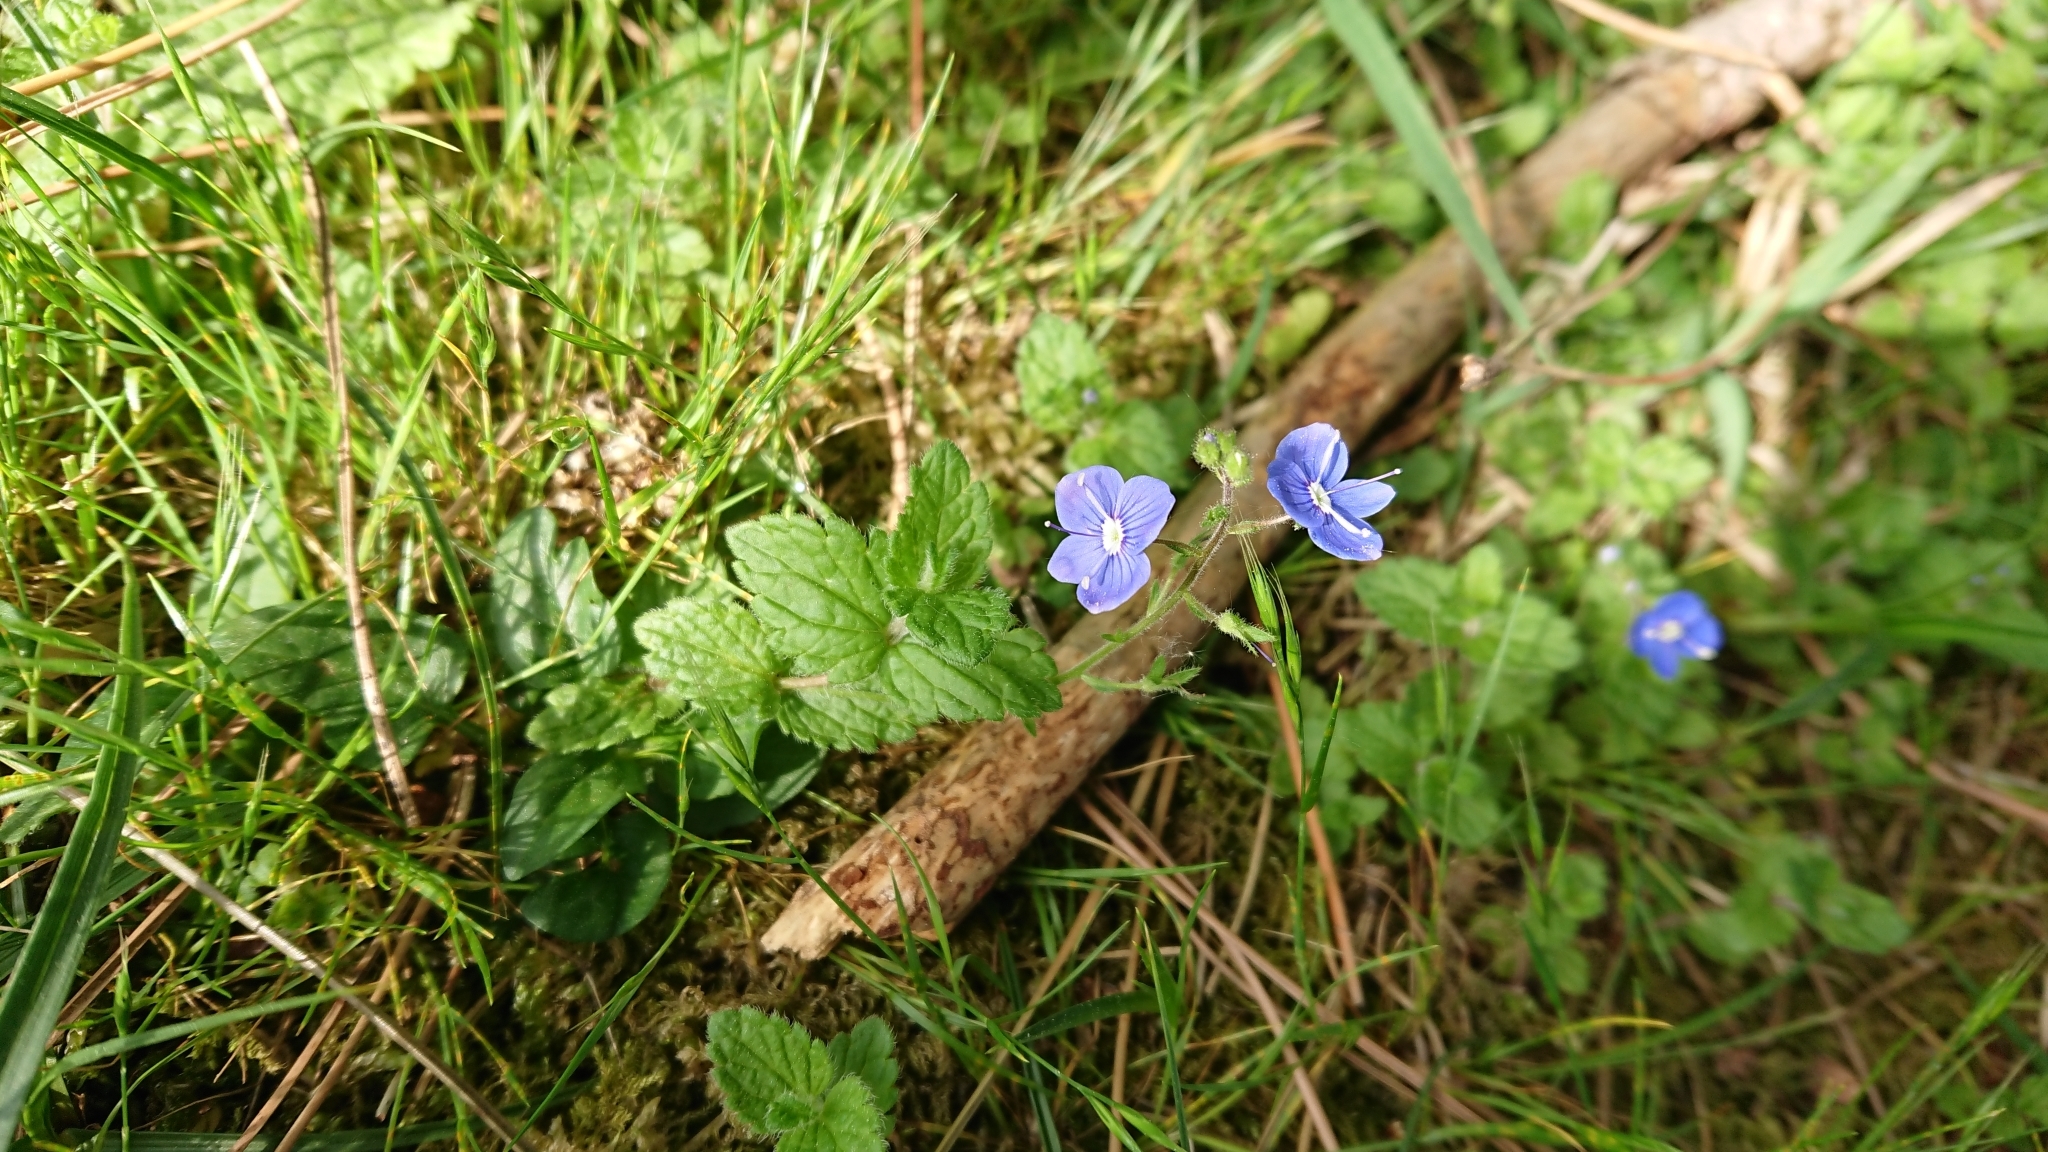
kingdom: Plantae
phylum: Tracheophyta
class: Magnoliopsida
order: Lamiales
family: Plantaginaceae
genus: Veronica
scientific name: Veronica chamaedrys
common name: Germander speedwell
